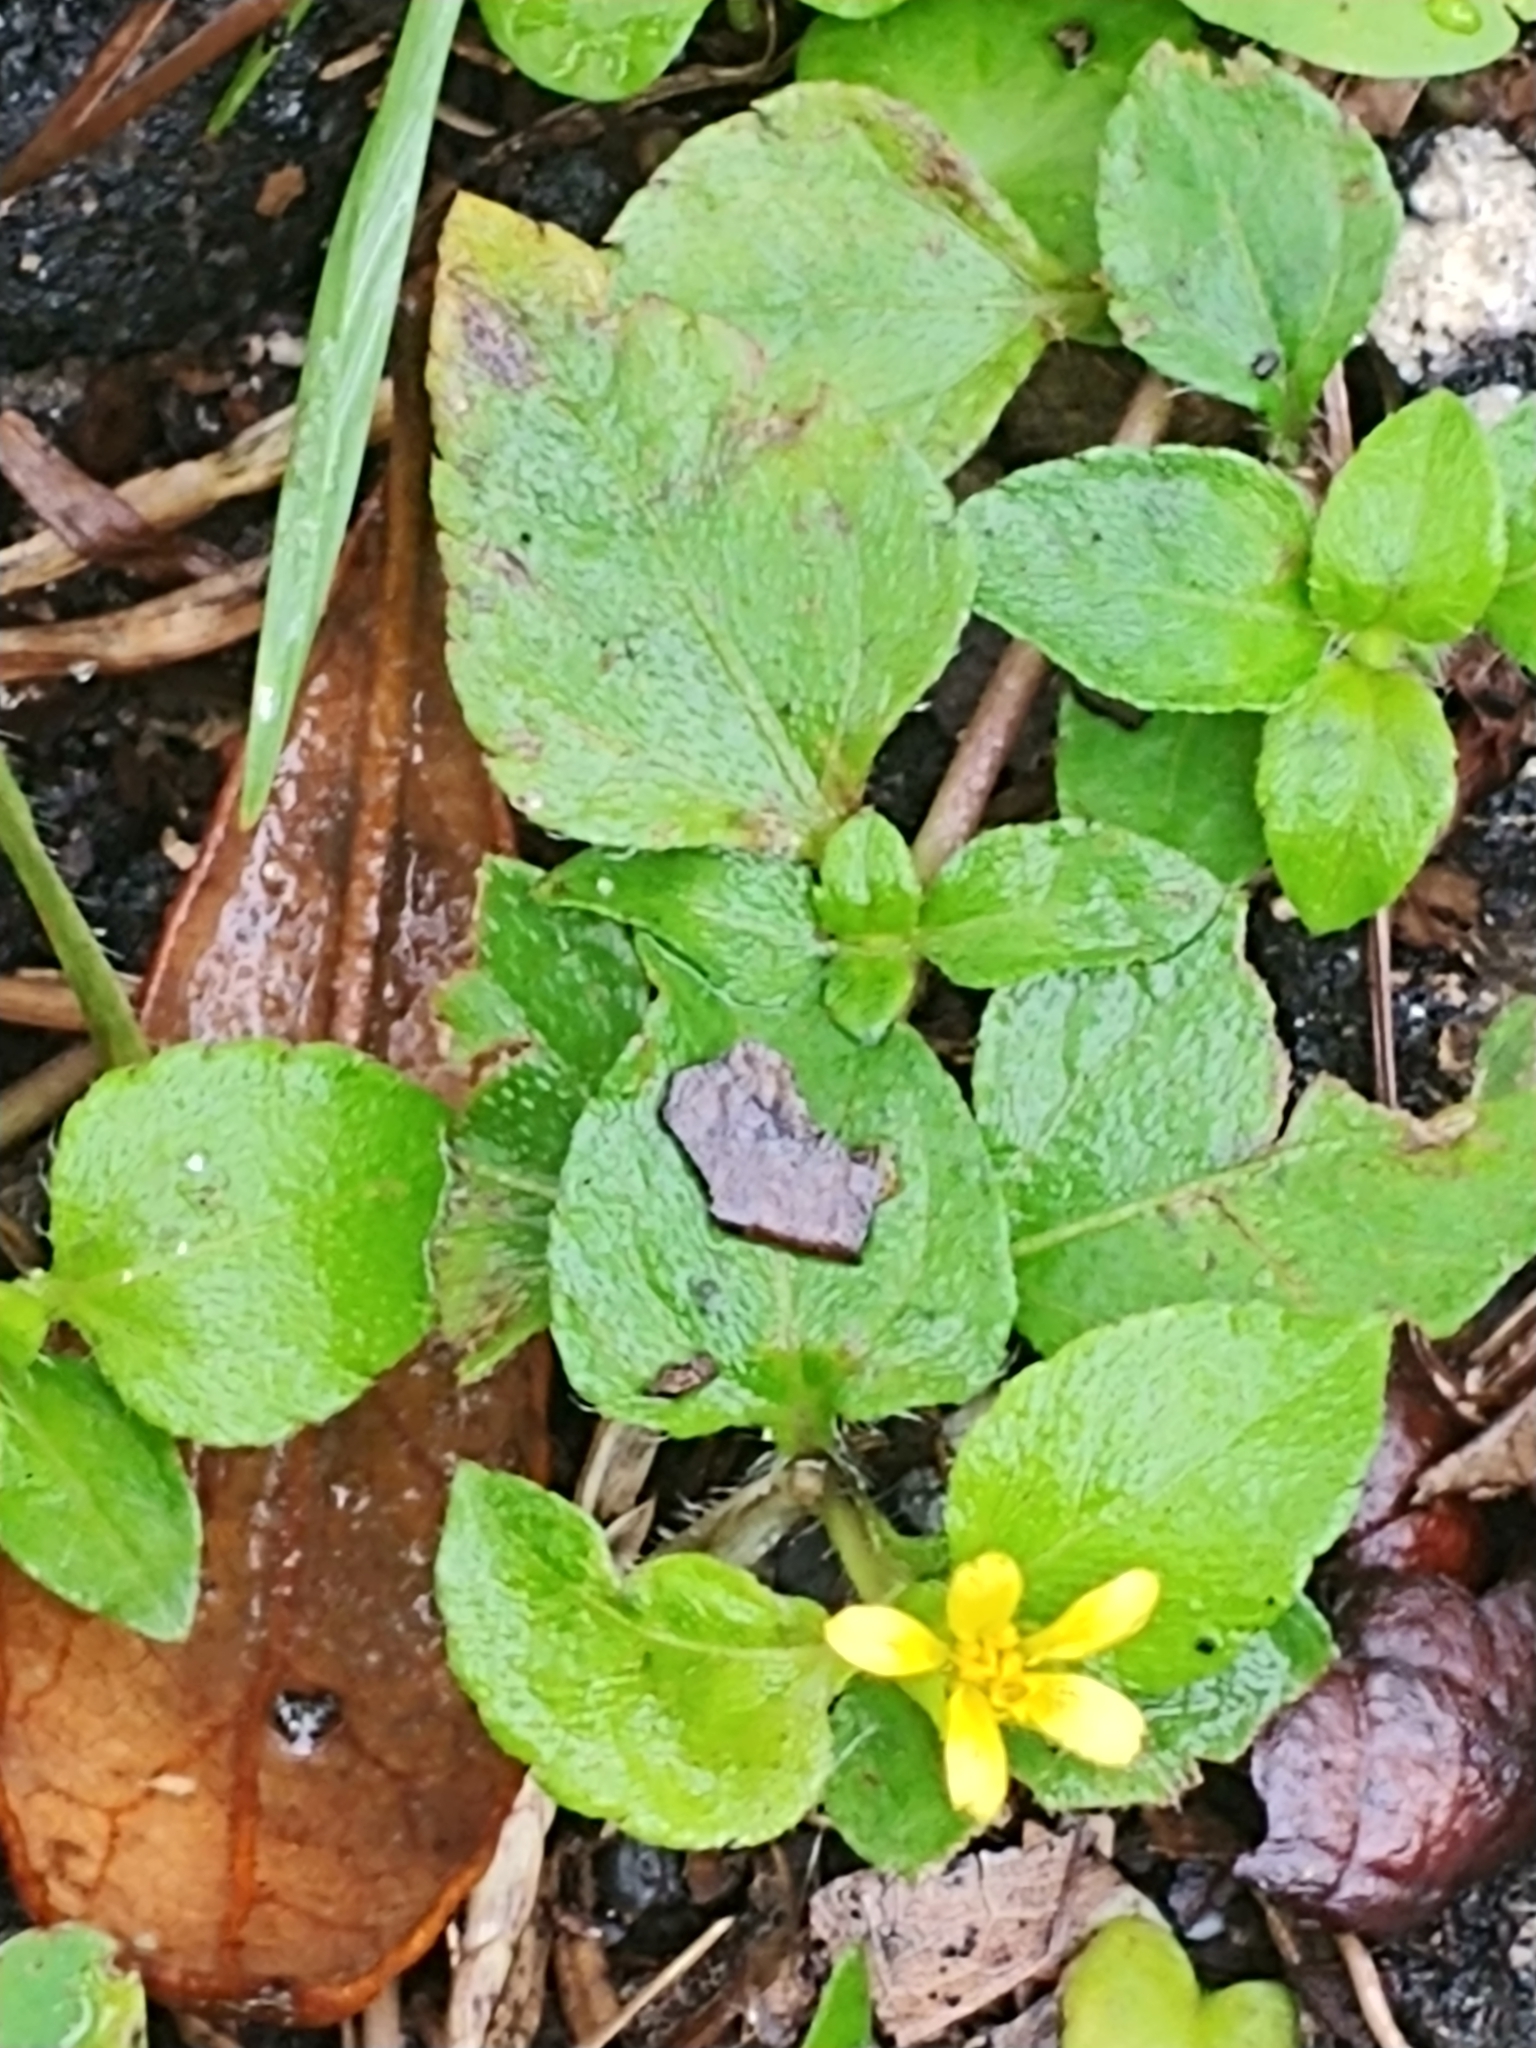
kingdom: Plantae
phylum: Tracheophyta
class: Magnoliopsida
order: Asterales
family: Asteraceae
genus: Calyptocarpus
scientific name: Calyptocarpus vialis
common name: Straggler daisy
